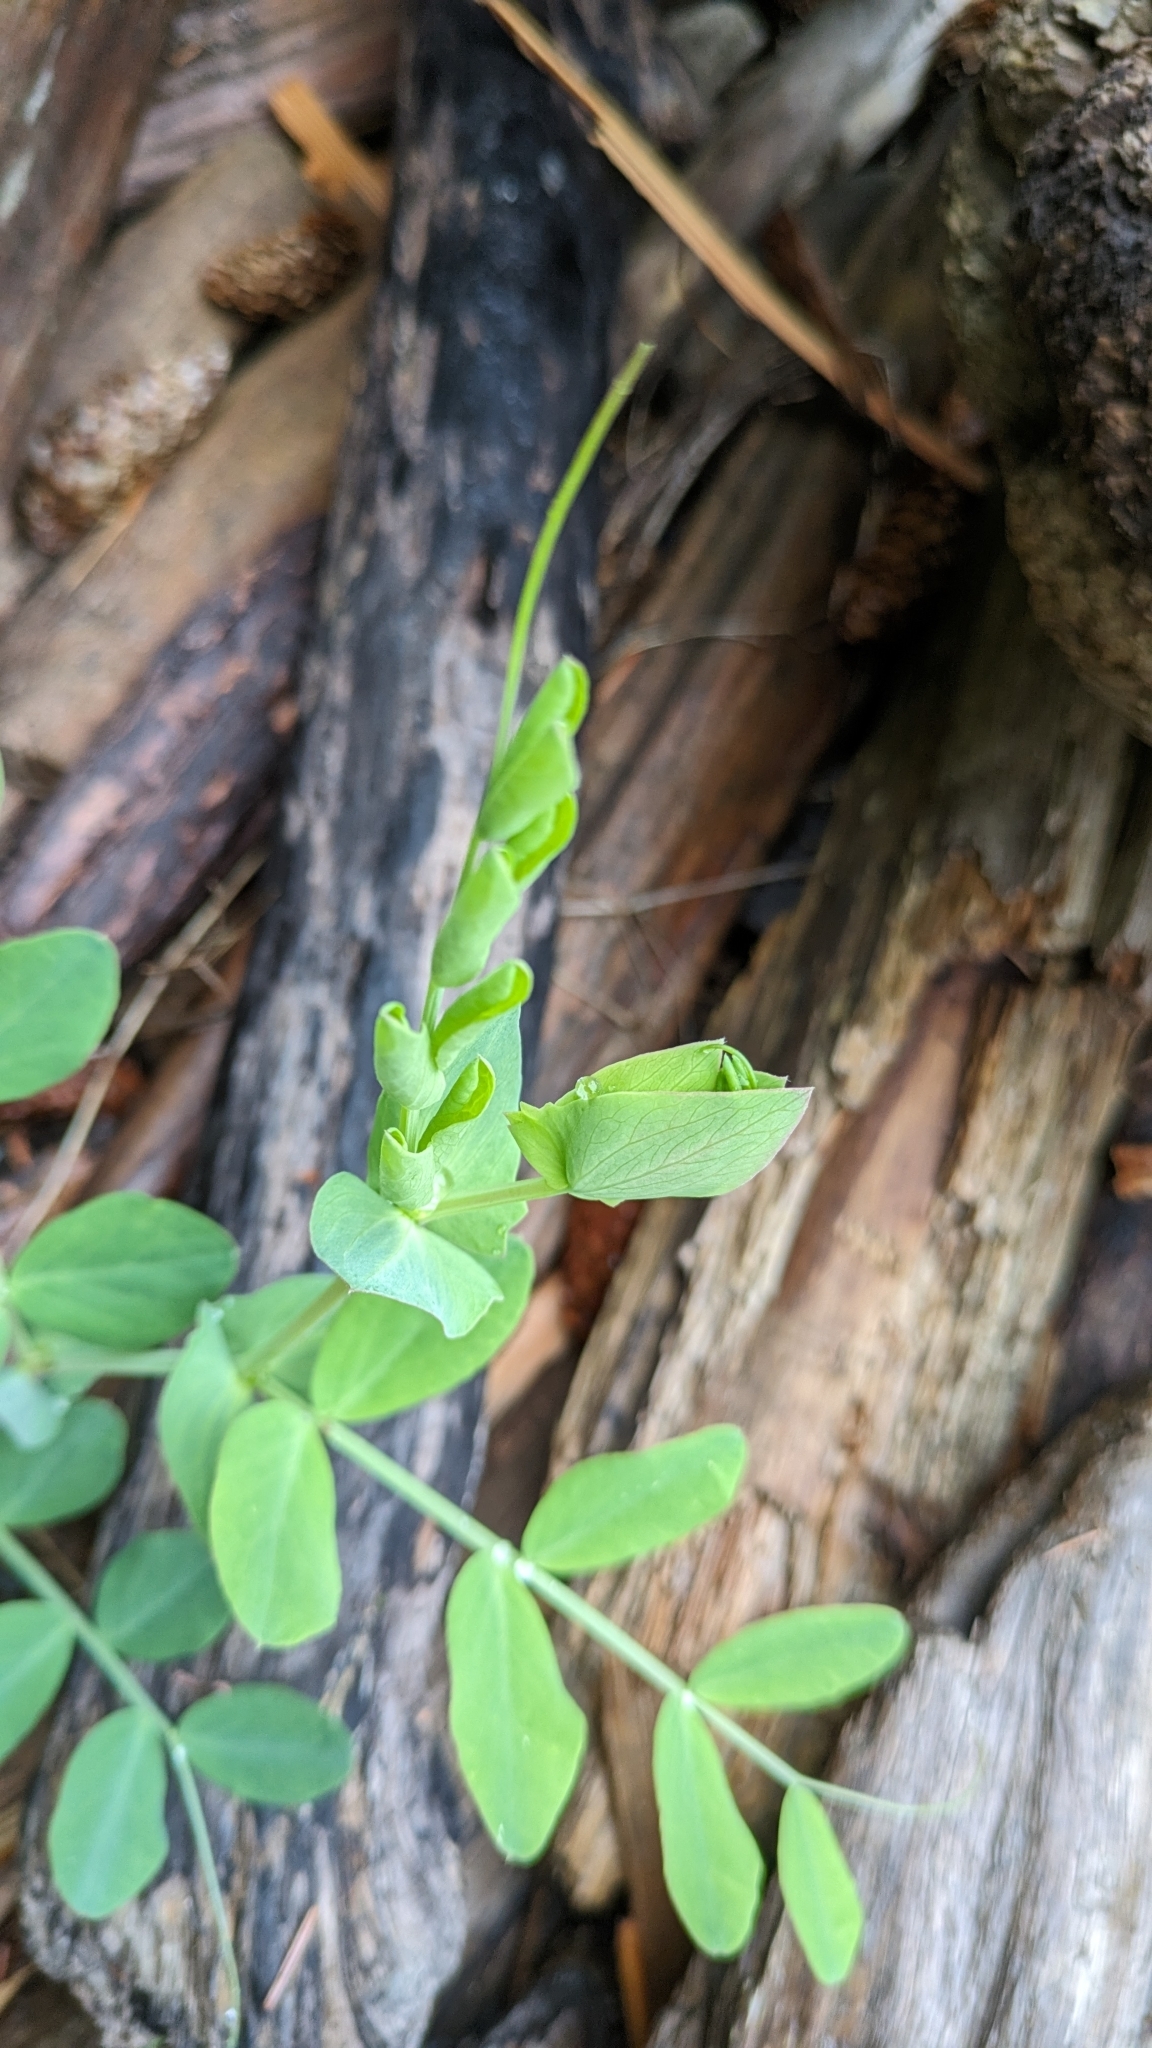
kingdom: Plantae
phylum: Tracheophyta
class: Magnoliopsida
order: Fabales
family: Fabaceae
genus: Lathyrus
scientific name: Lathyrus japonicus
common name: Sea pea
